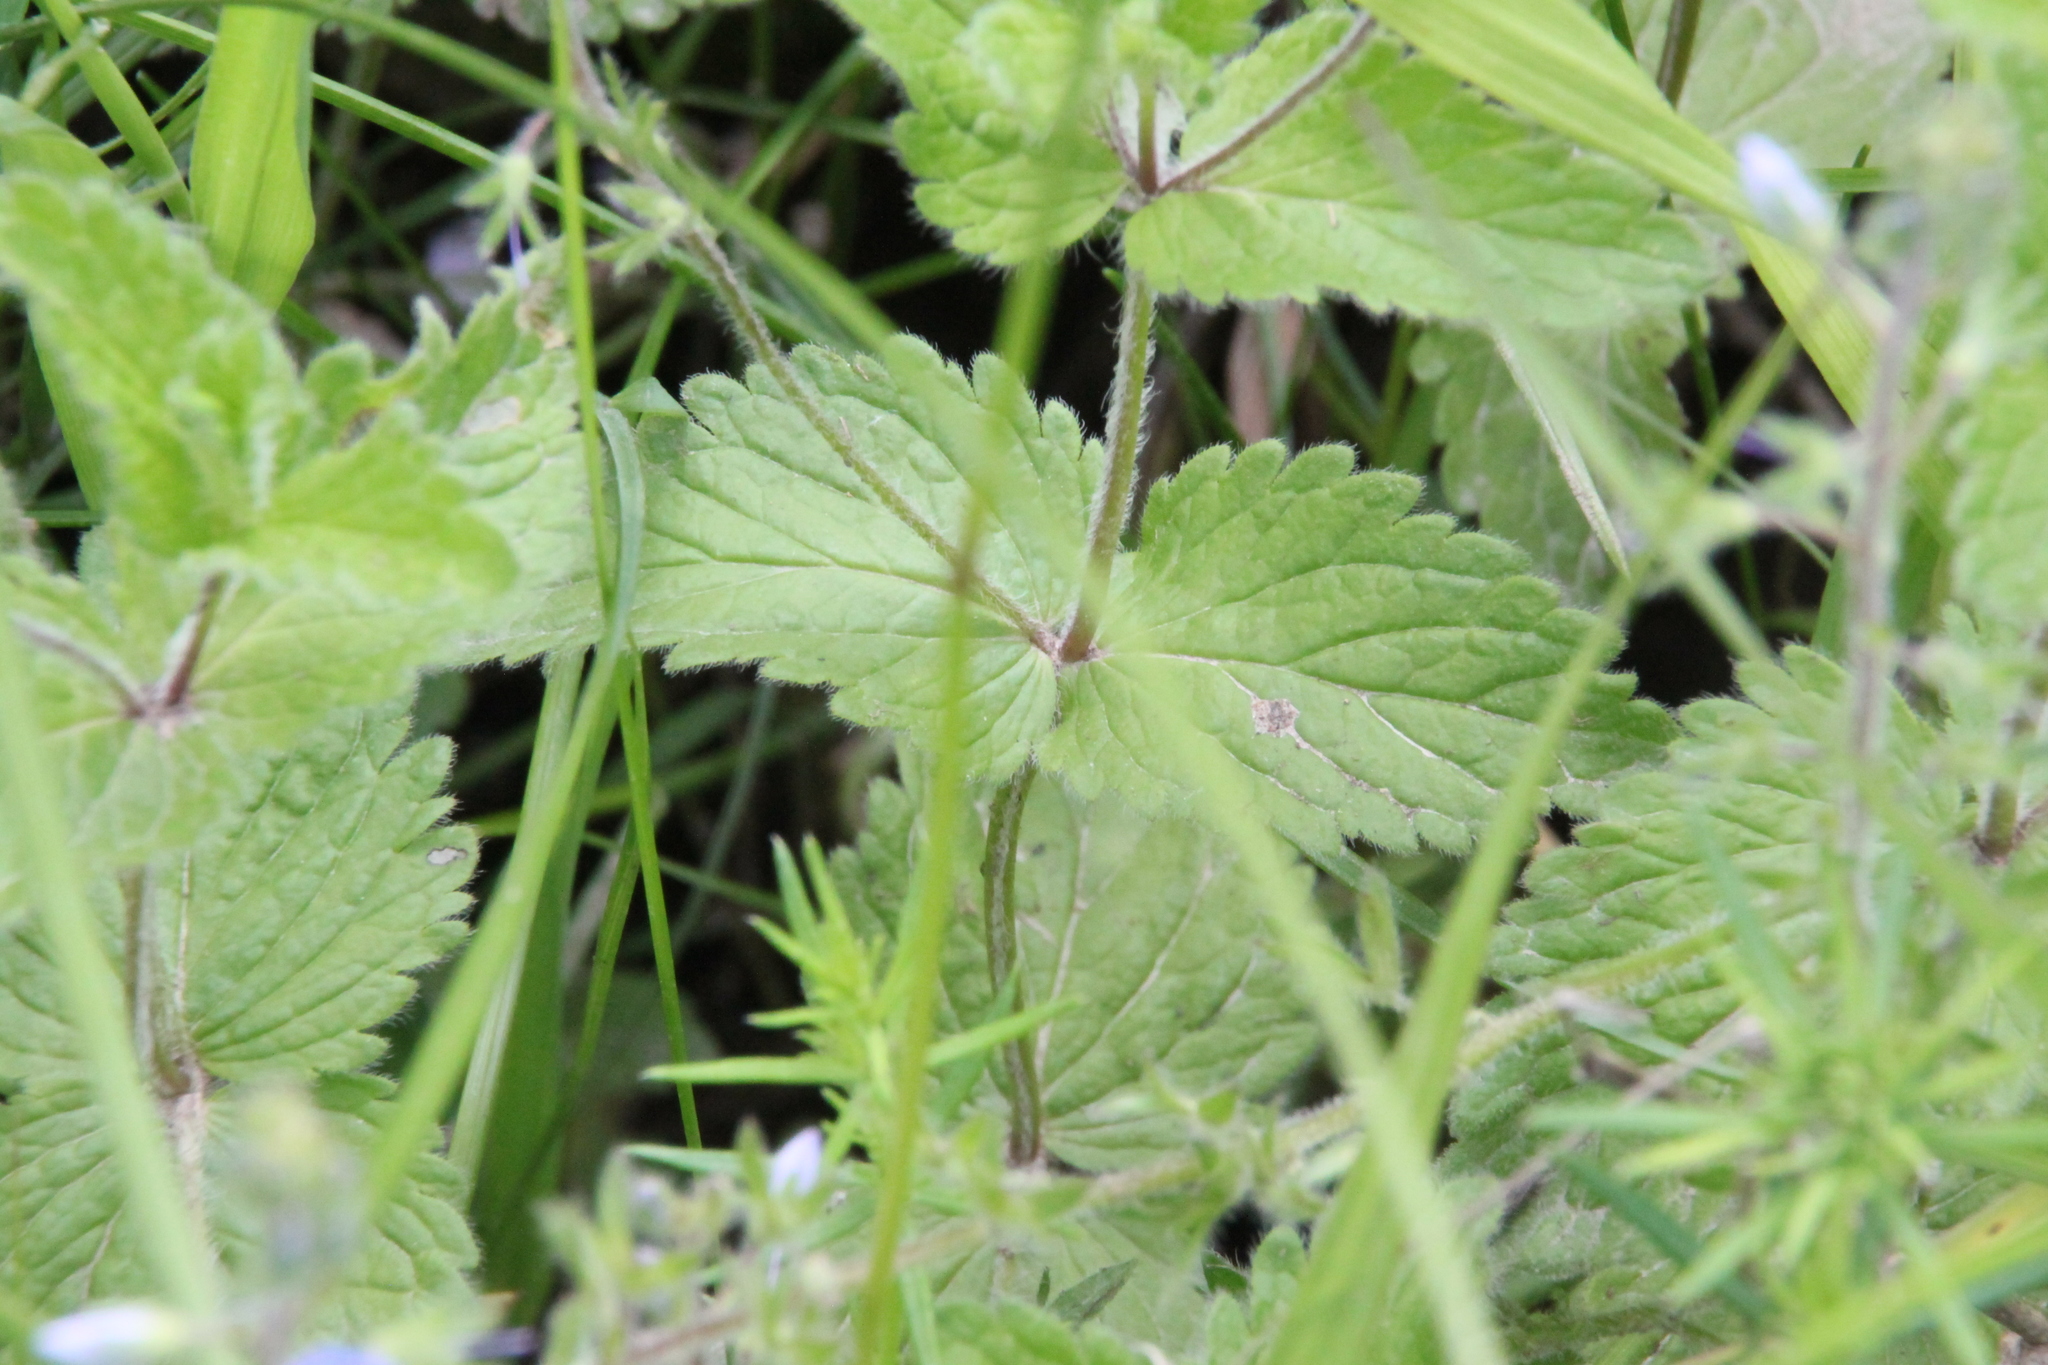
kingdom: Plantae
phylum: Tracheophyta
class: Magnoliopsida
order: Lamiales
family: Plantaginaceae
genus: Veronica
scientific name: Veronica chamaedrys
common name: Germander speedwell
